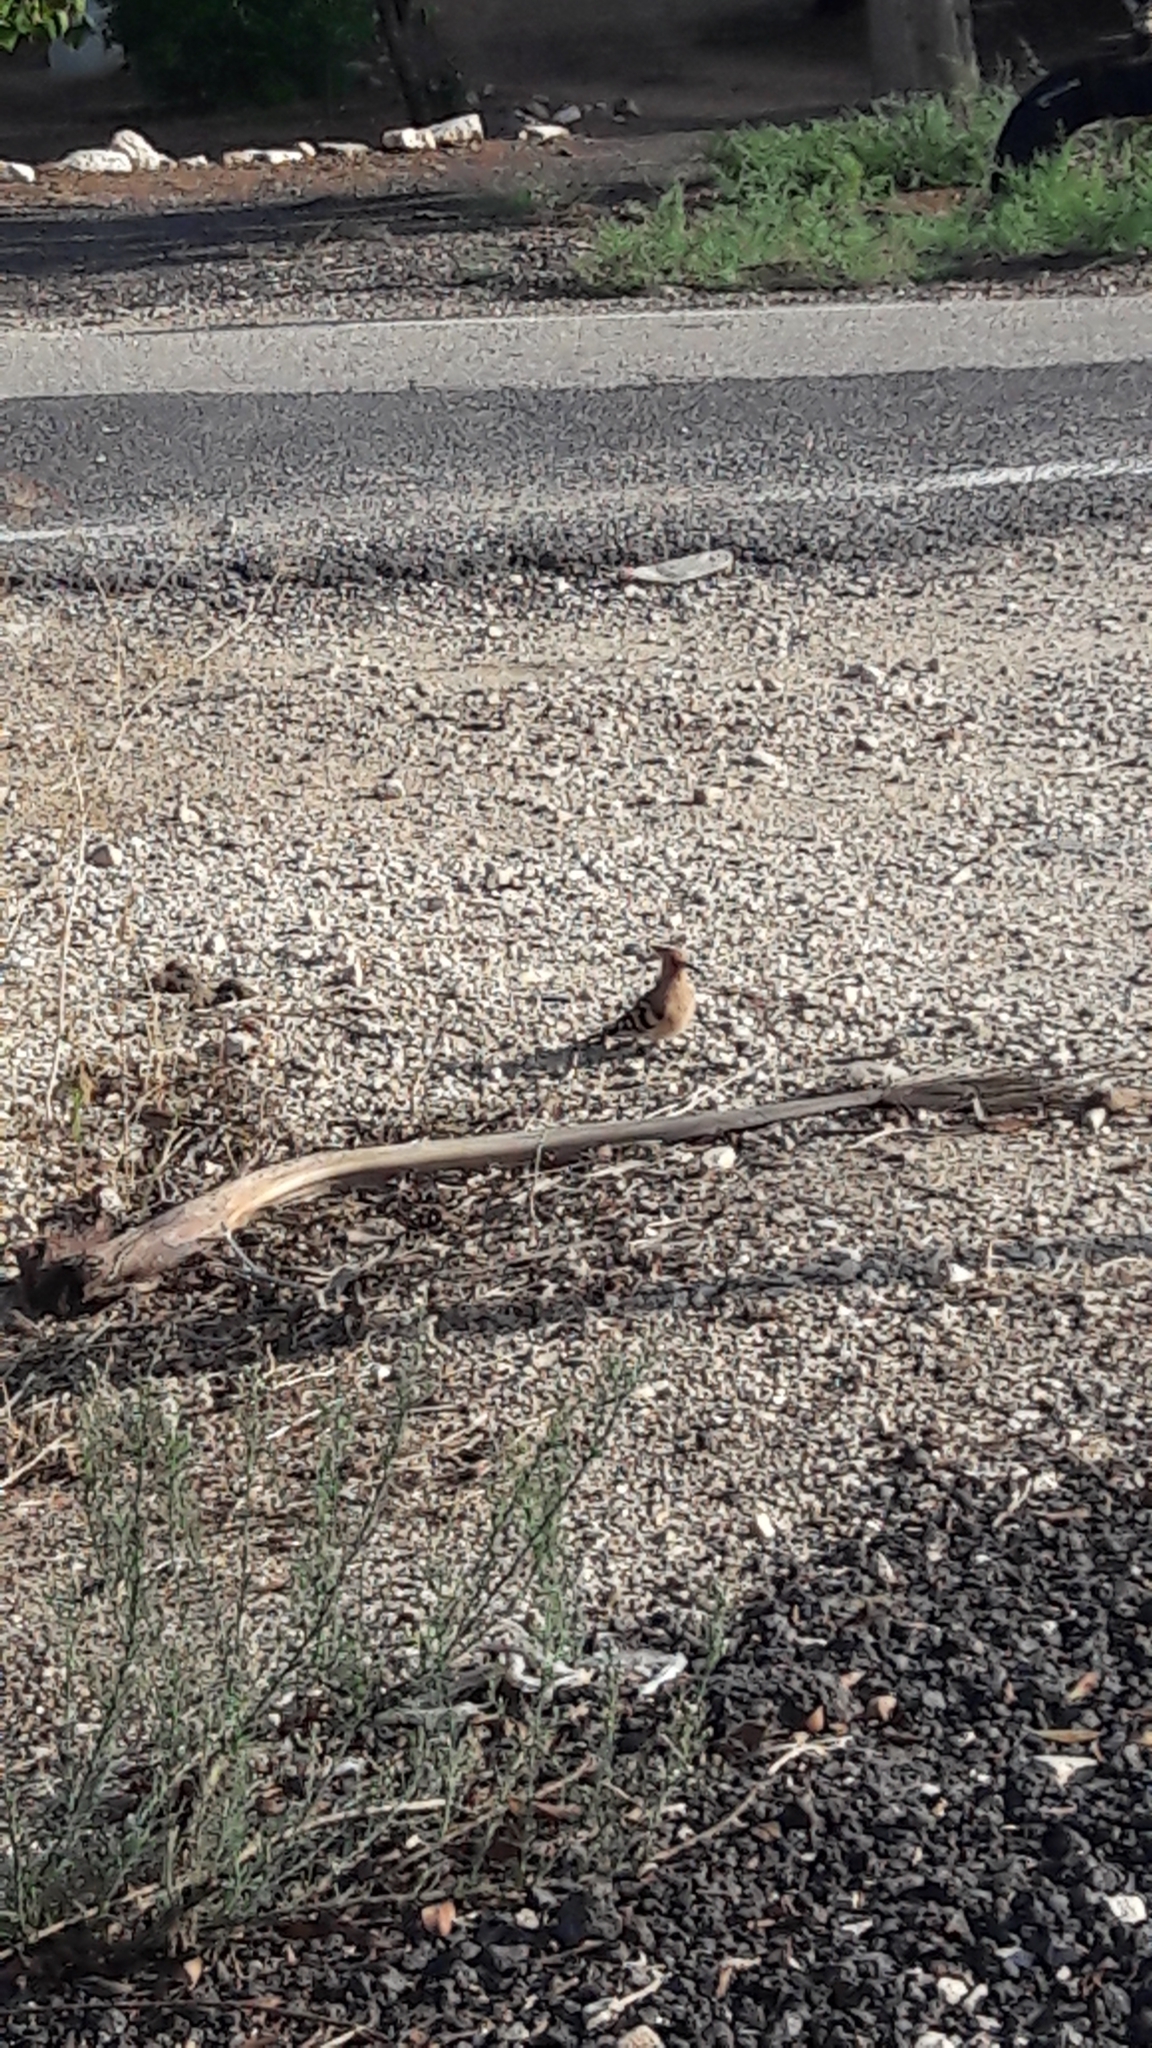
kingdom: Animalia
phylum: Chordata
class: Aves
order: Bucerotiformes
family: Upupidae
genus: Upupa
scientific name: Upupa epops
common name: Eurasian hoopoe
